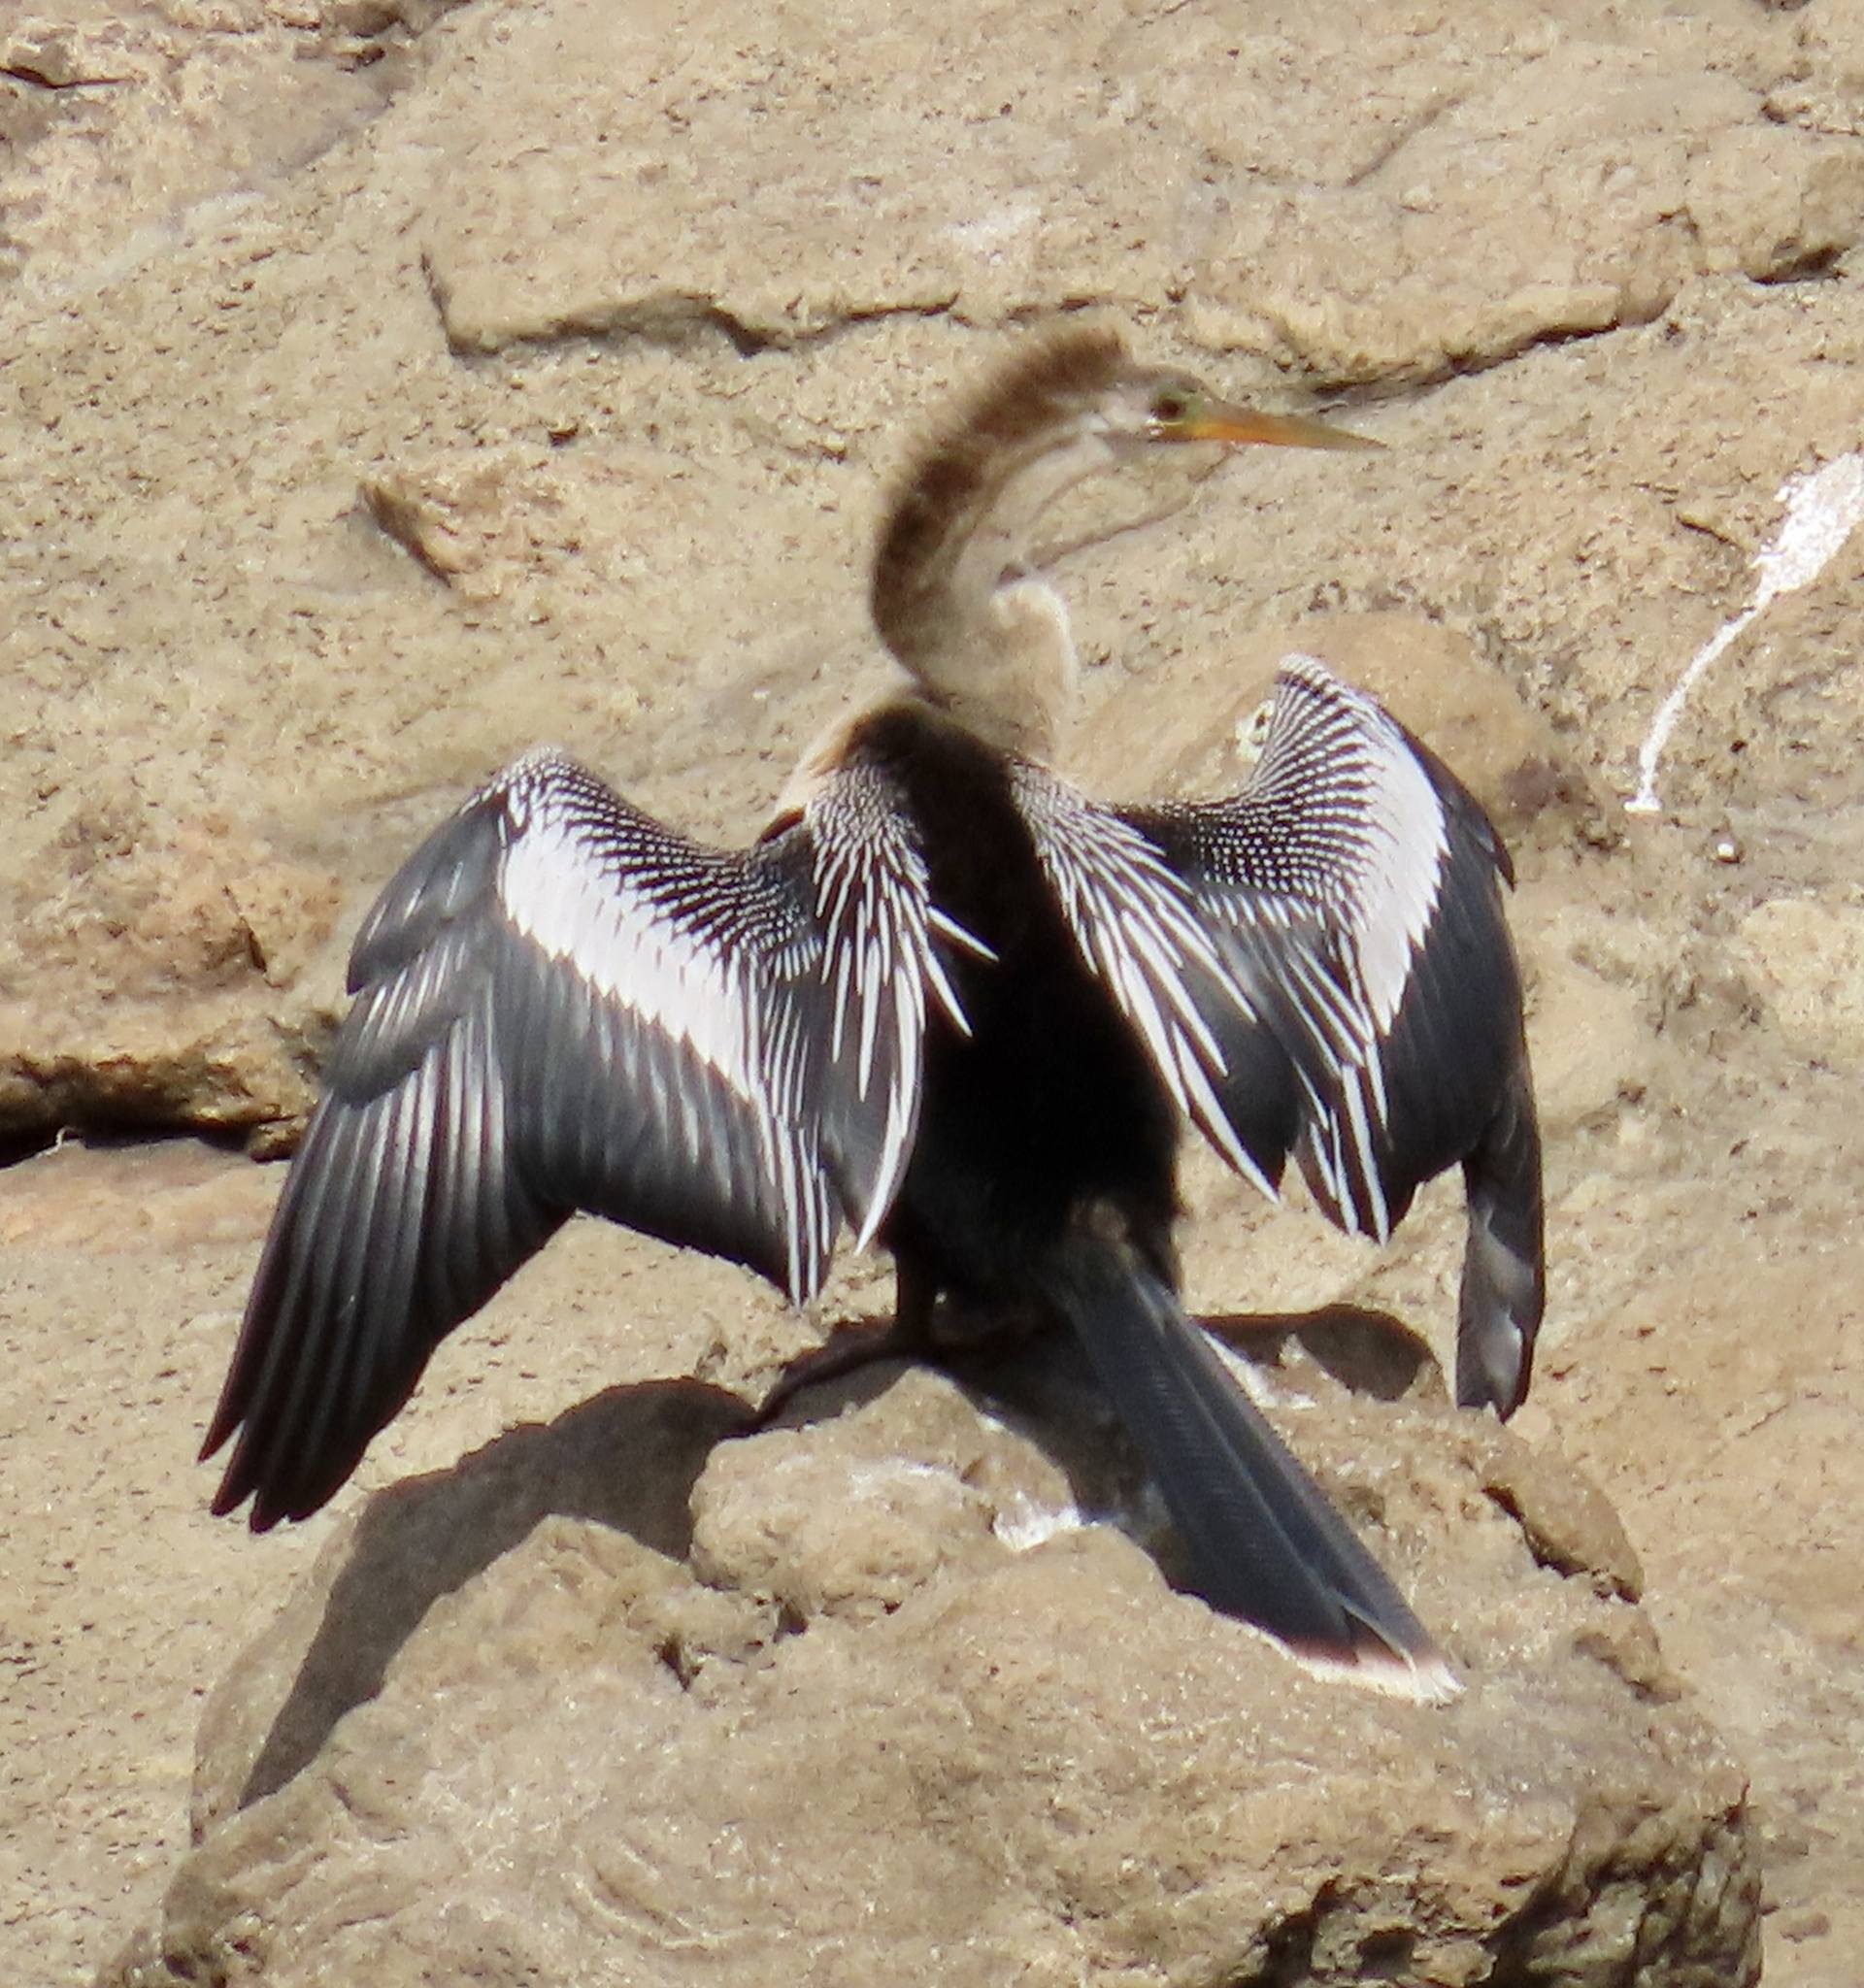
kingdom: Animalia
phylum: Chordata
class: Aves
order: Suliformes
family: Anhingidae
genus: Anhinga
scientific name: Anhinga anhinga
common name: Anhinga
